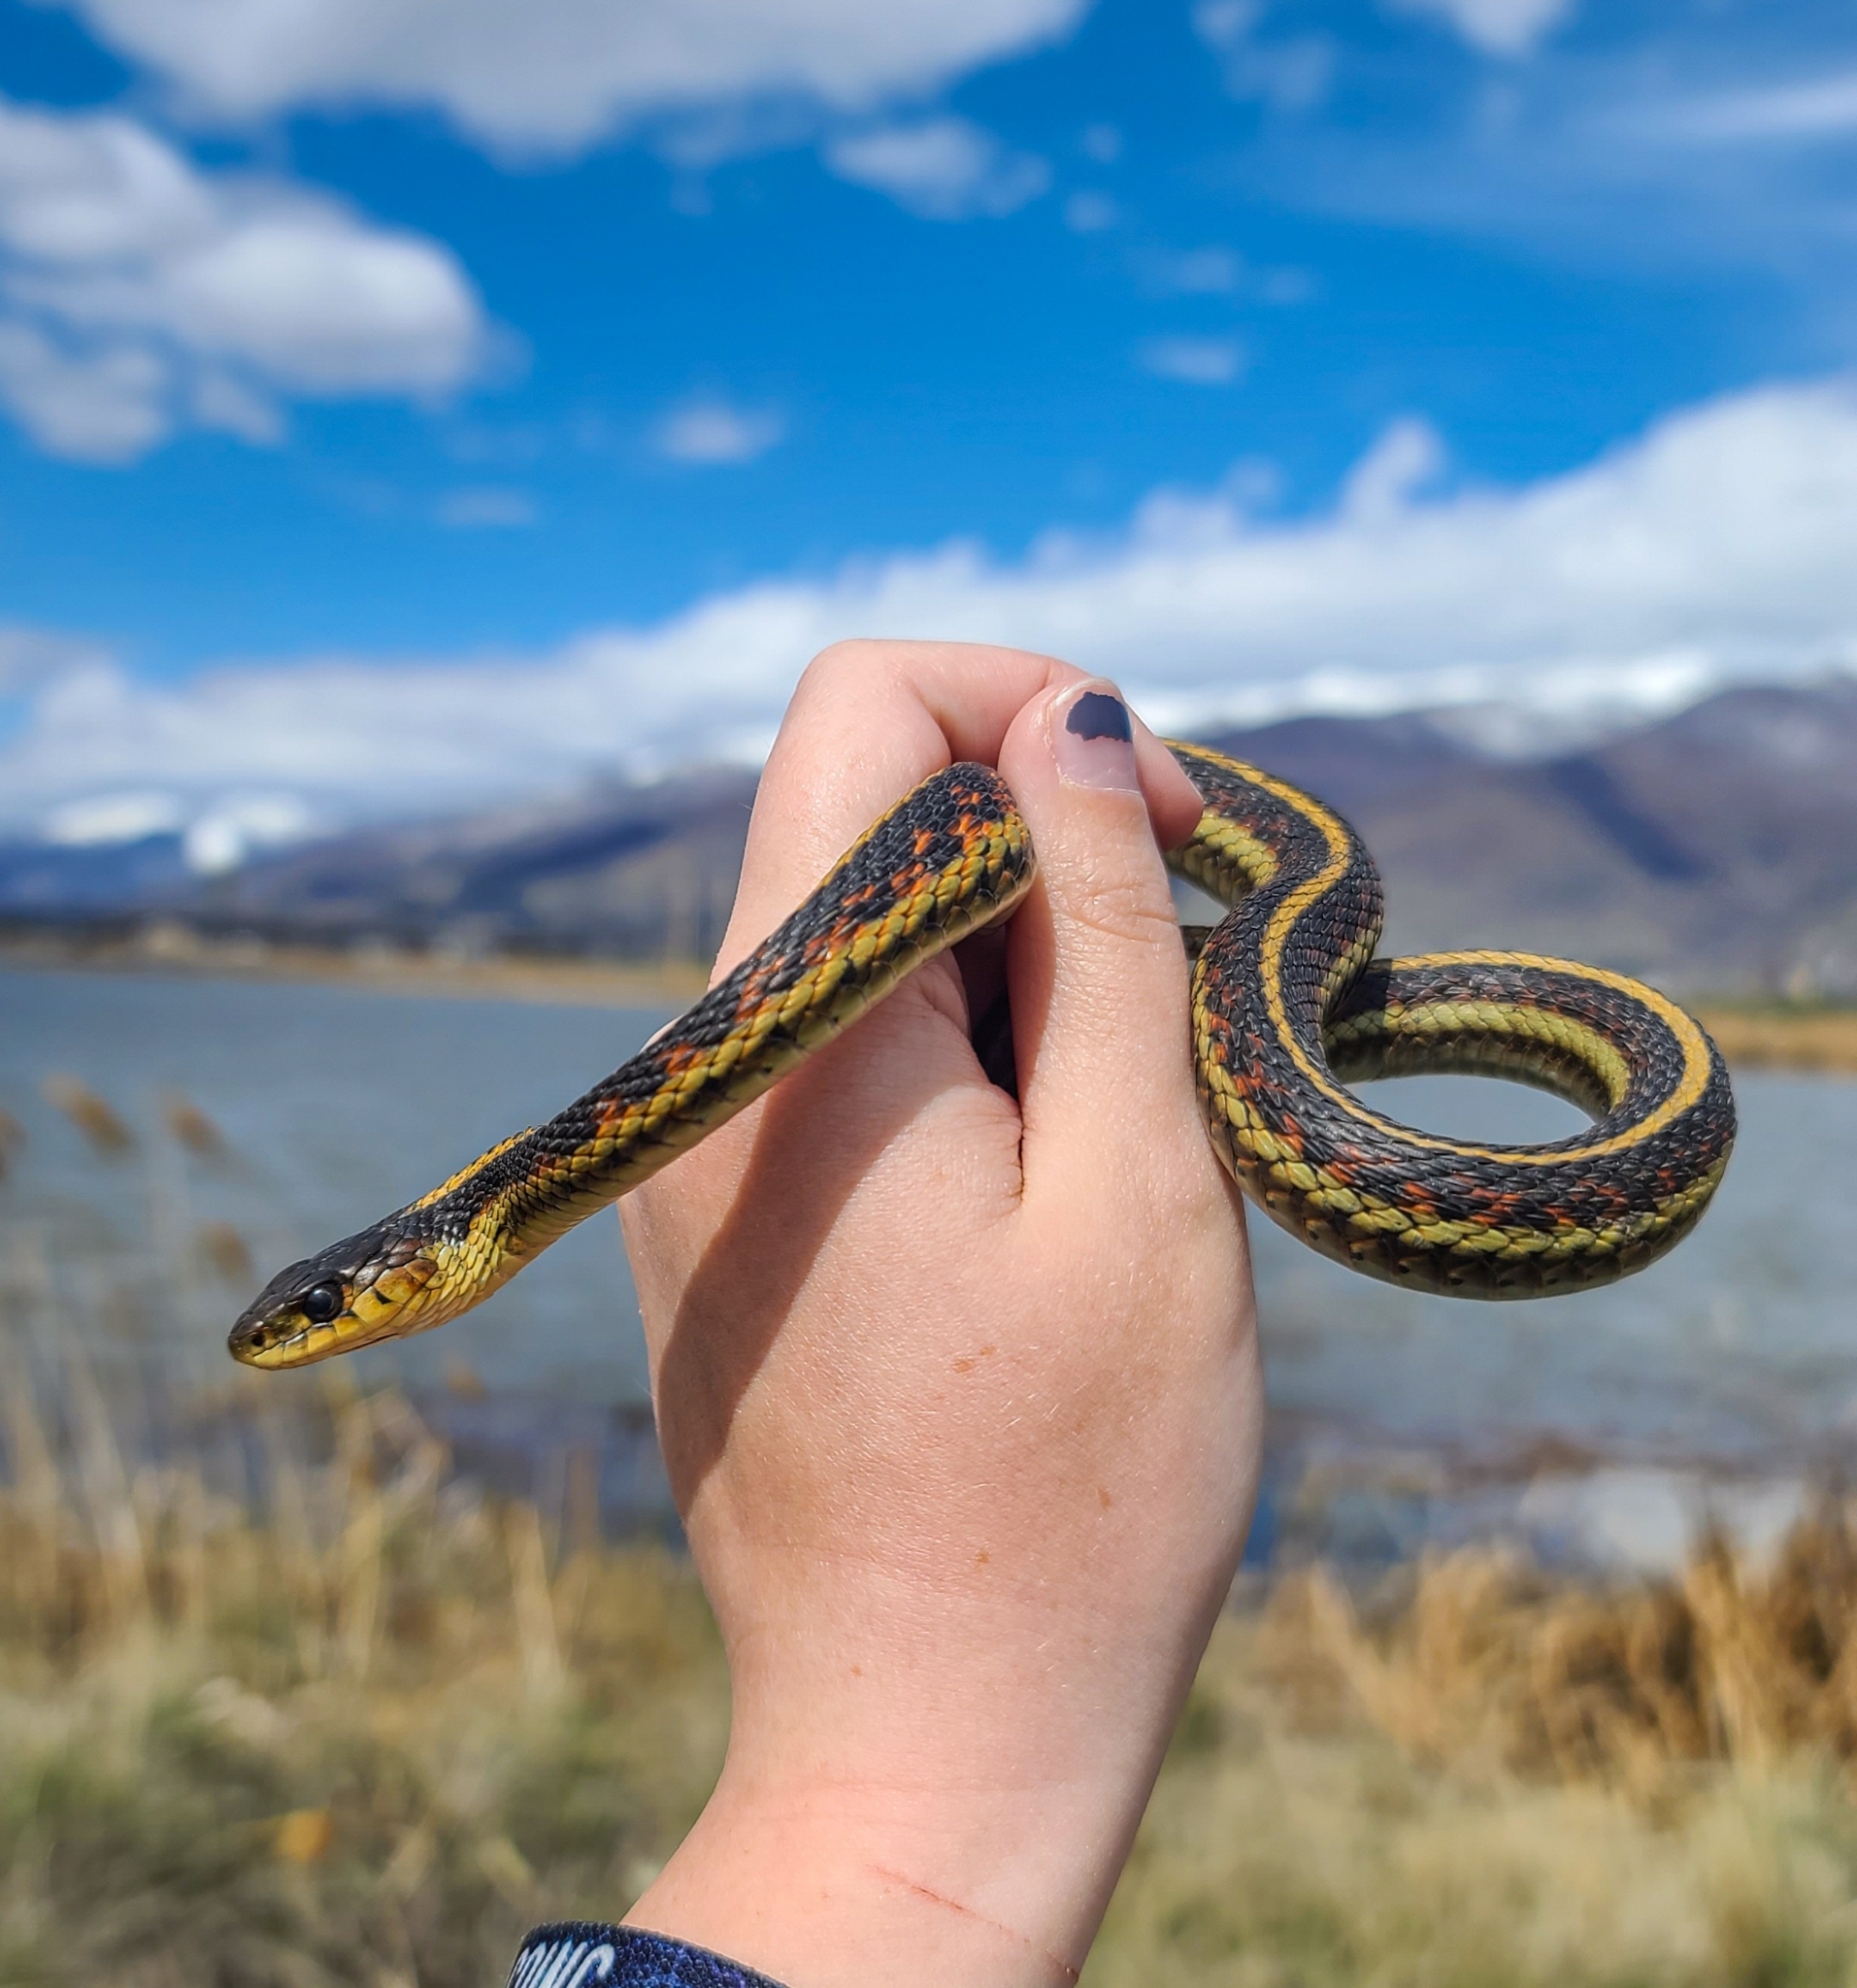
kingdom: Animalia
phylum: Chordata
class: Squamata
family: Colubridae
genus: Thamnophis
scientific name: Thamnophis sirtalis
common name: Common garter snake
